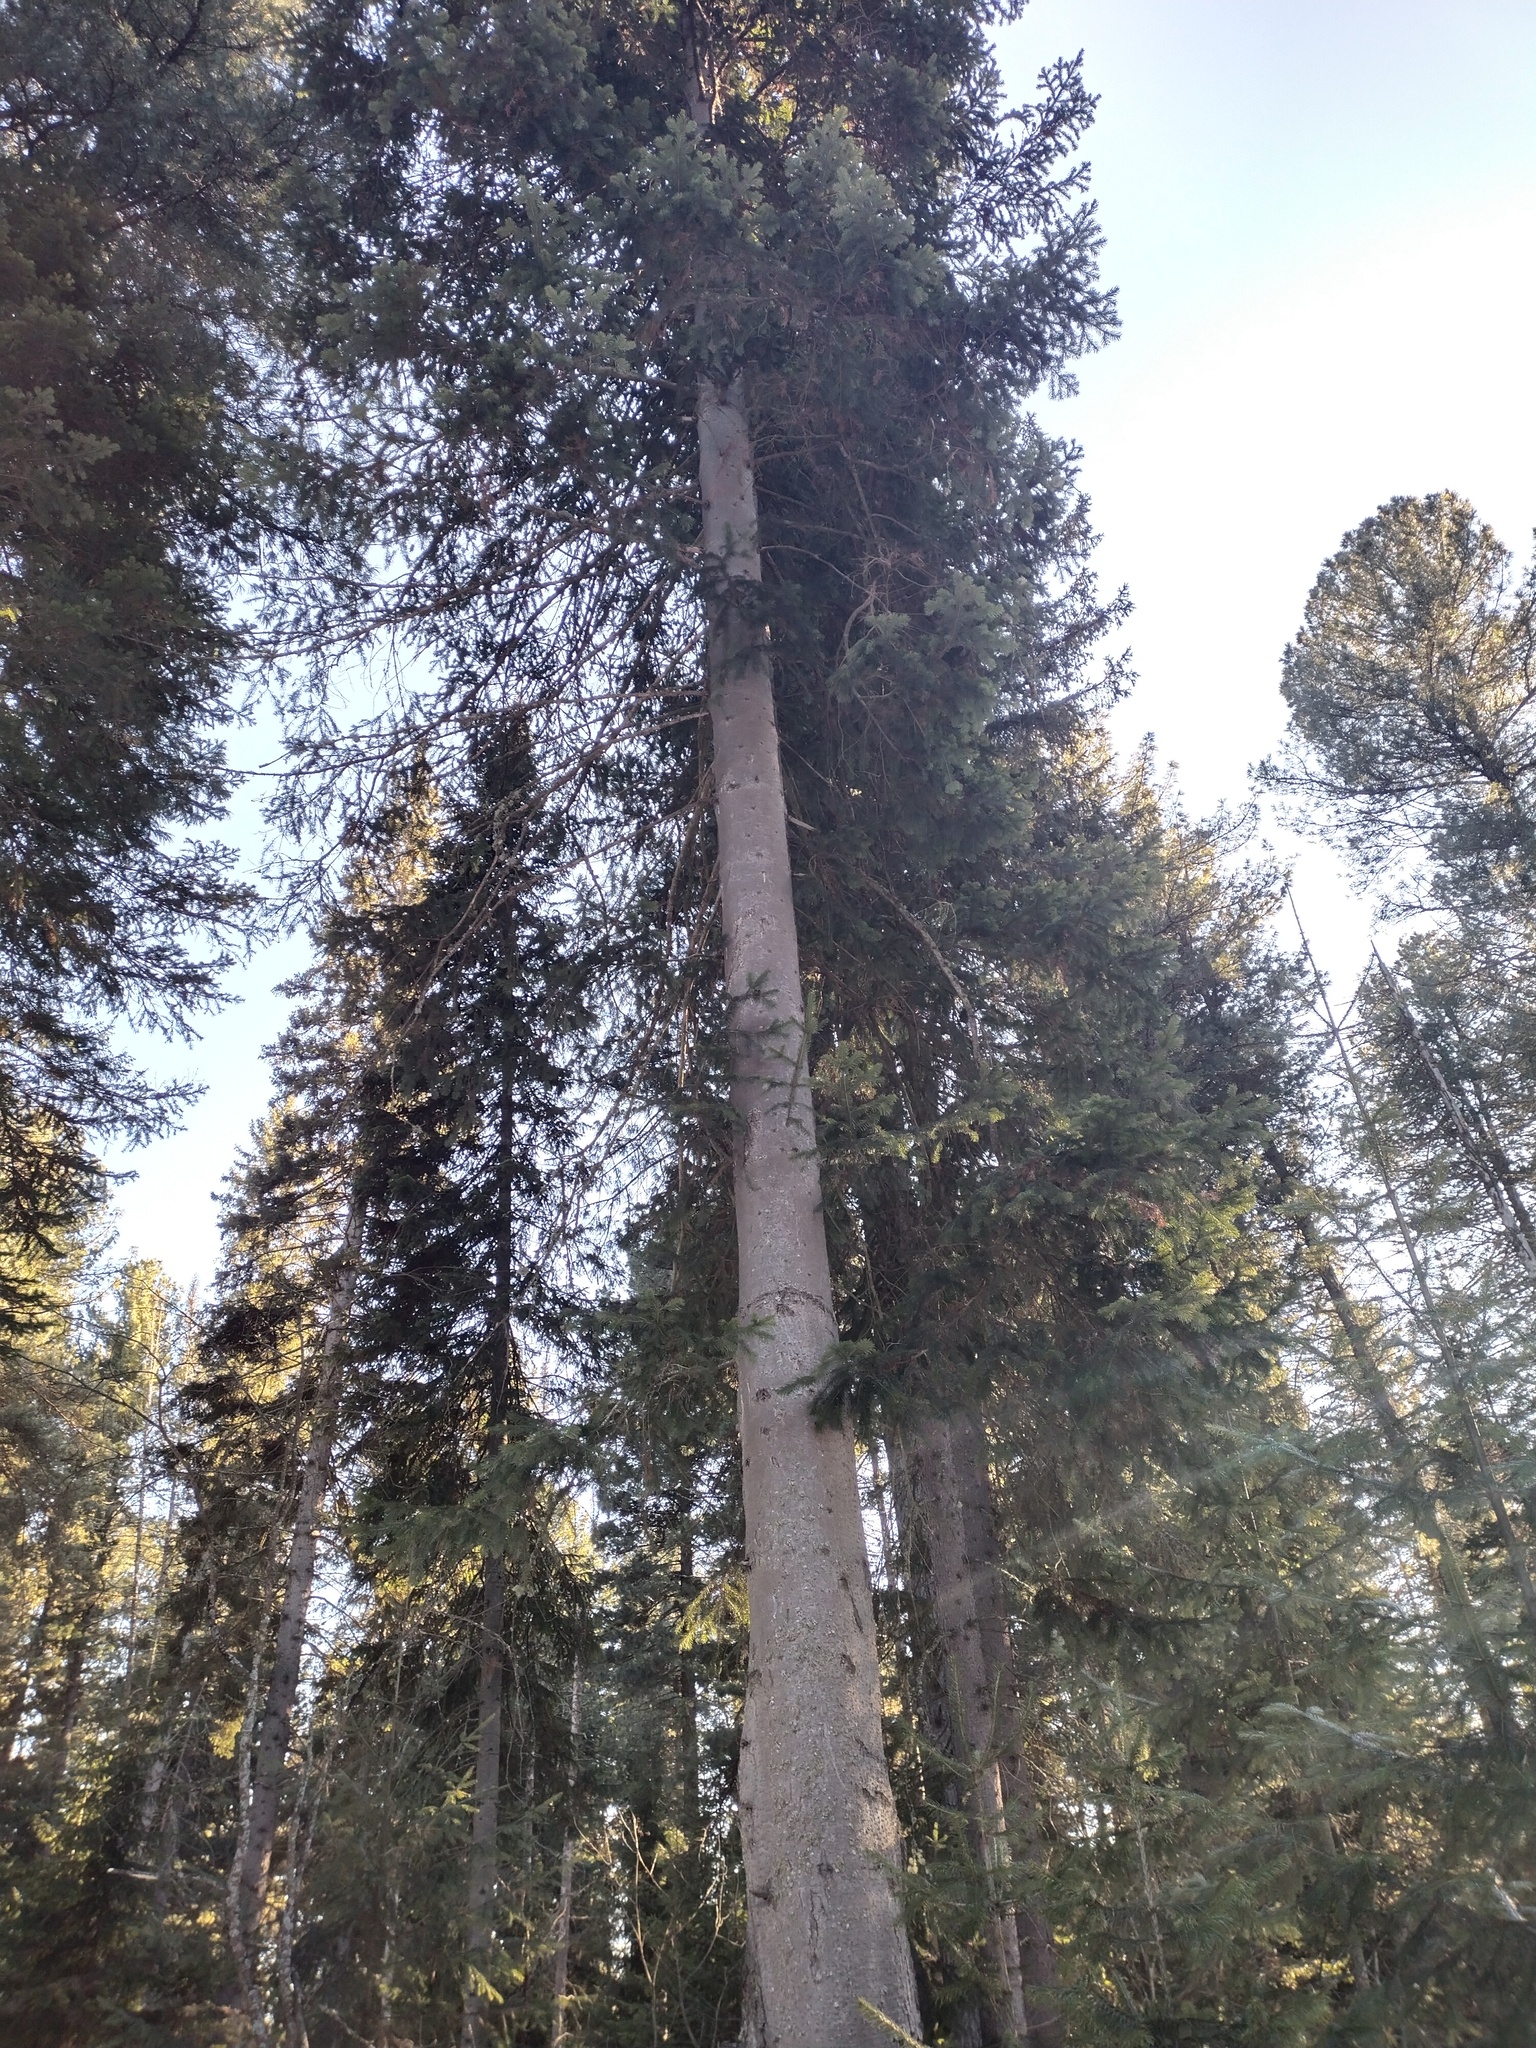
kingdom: Plantae
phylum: Tracheophyta
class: Pinopsida
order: Pinales
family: Pinaceae
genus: Abies
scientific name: Abies sibirica
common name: Siberian fir
